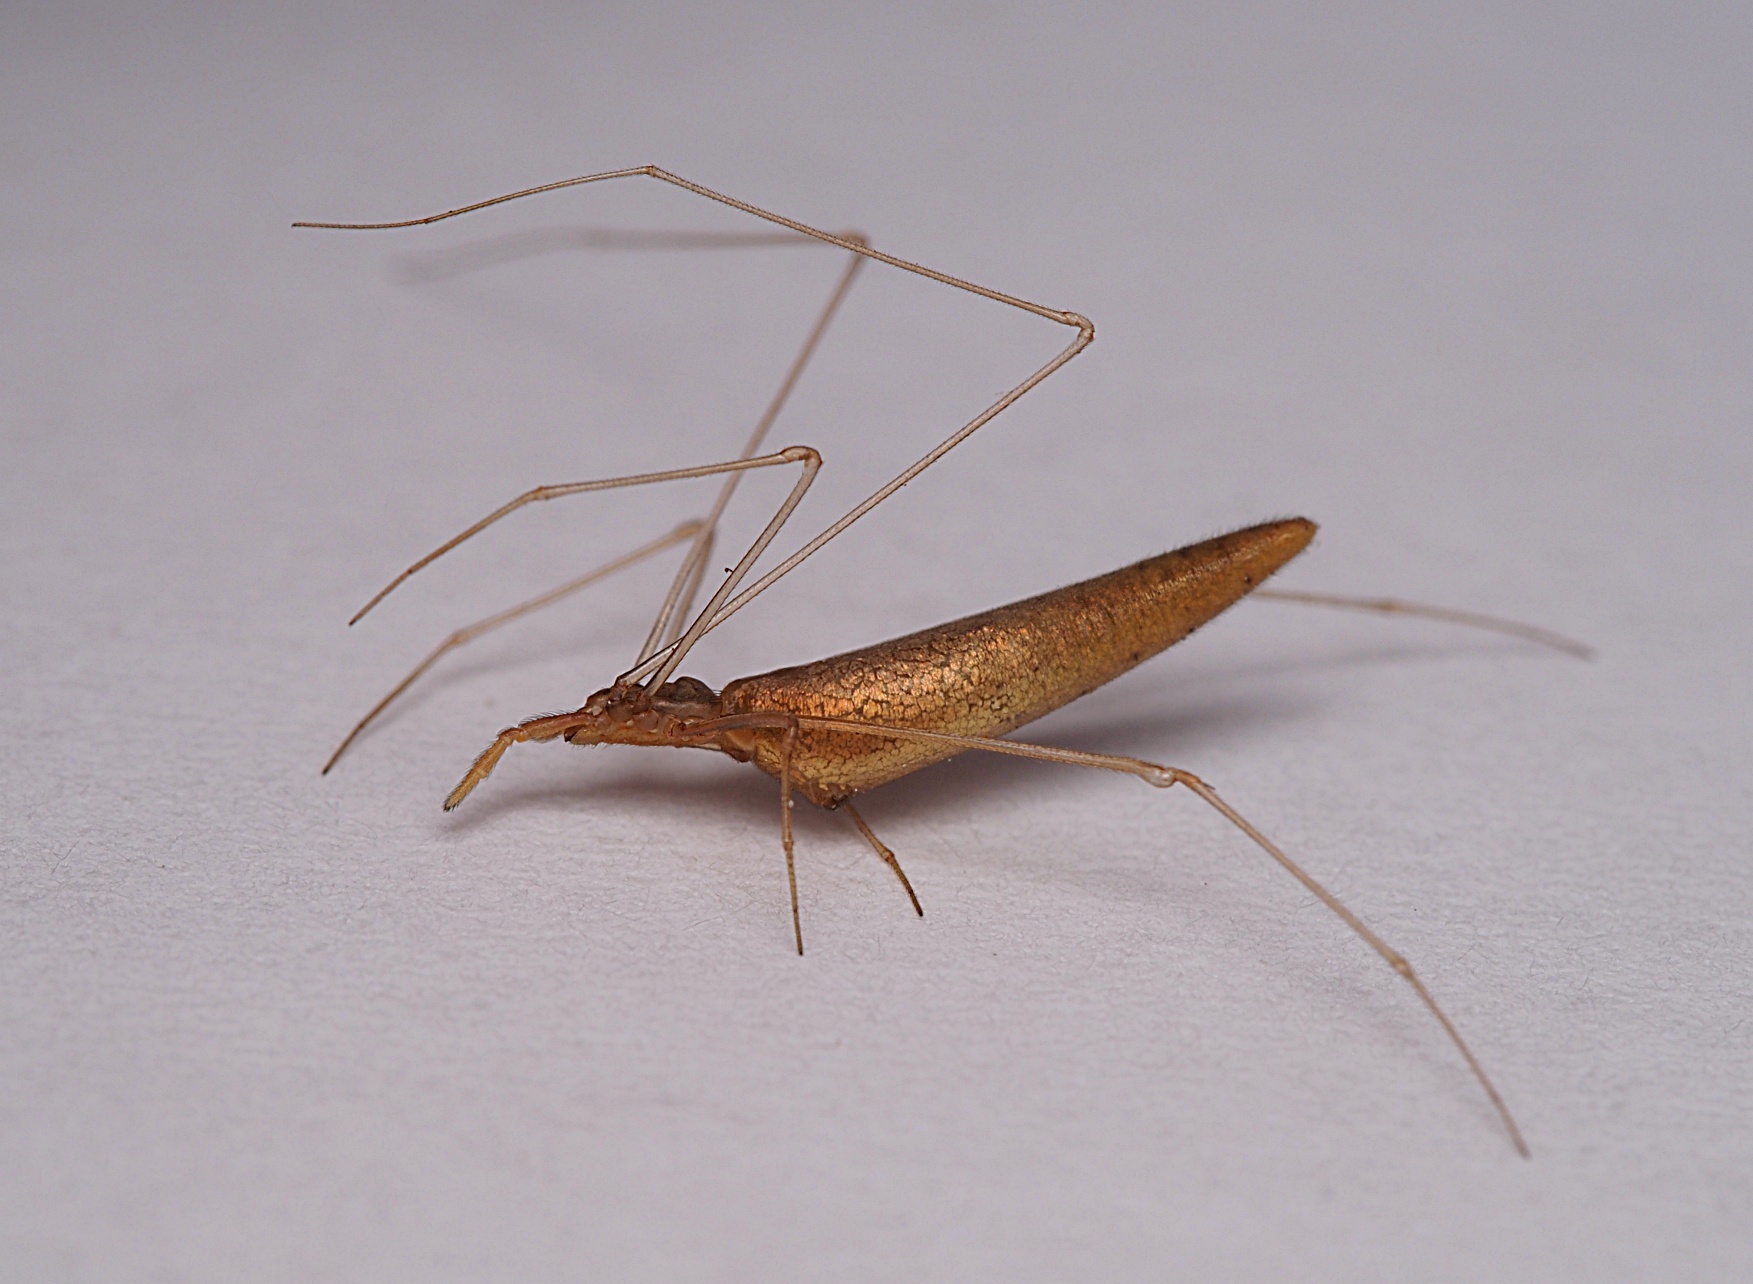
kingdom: Animalia
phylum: Arthropoda
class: Arachnida
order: Araneae
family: Theridiidae
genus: Rhomphaea
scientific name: Rhomphaea urquharti
